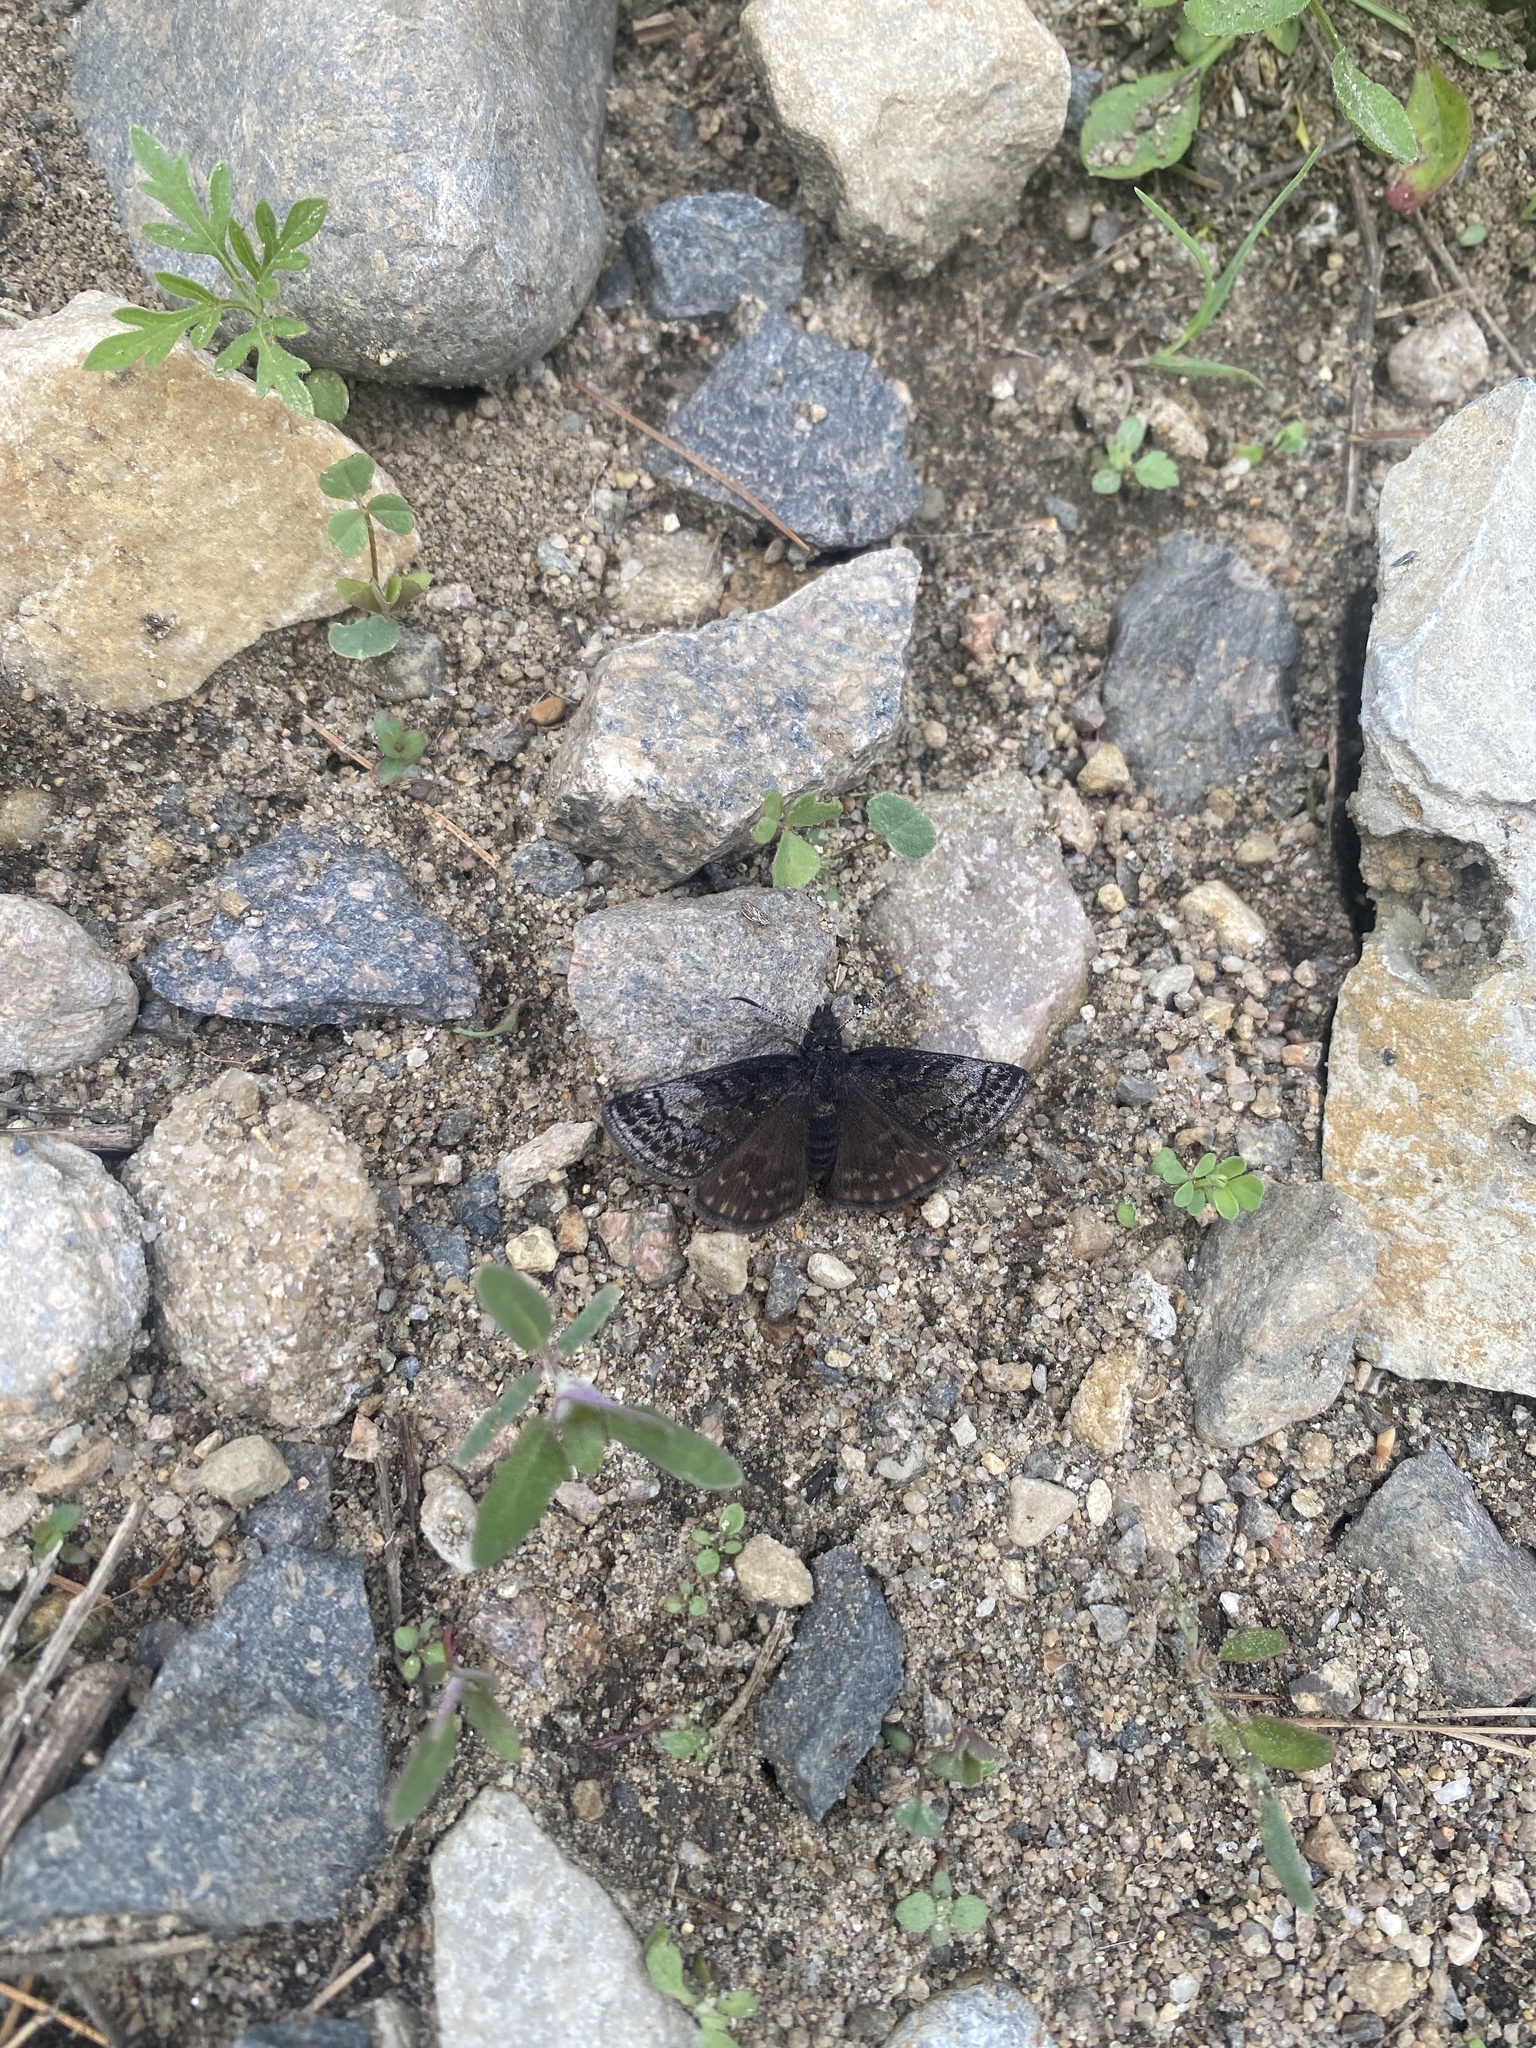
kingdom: Animalia
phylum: Arthropoda
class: Insecta
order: Lepidoptera
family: Hesperiidae
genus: Erynnis
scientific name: Erynnis icelus
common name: Dreamy duskywing
